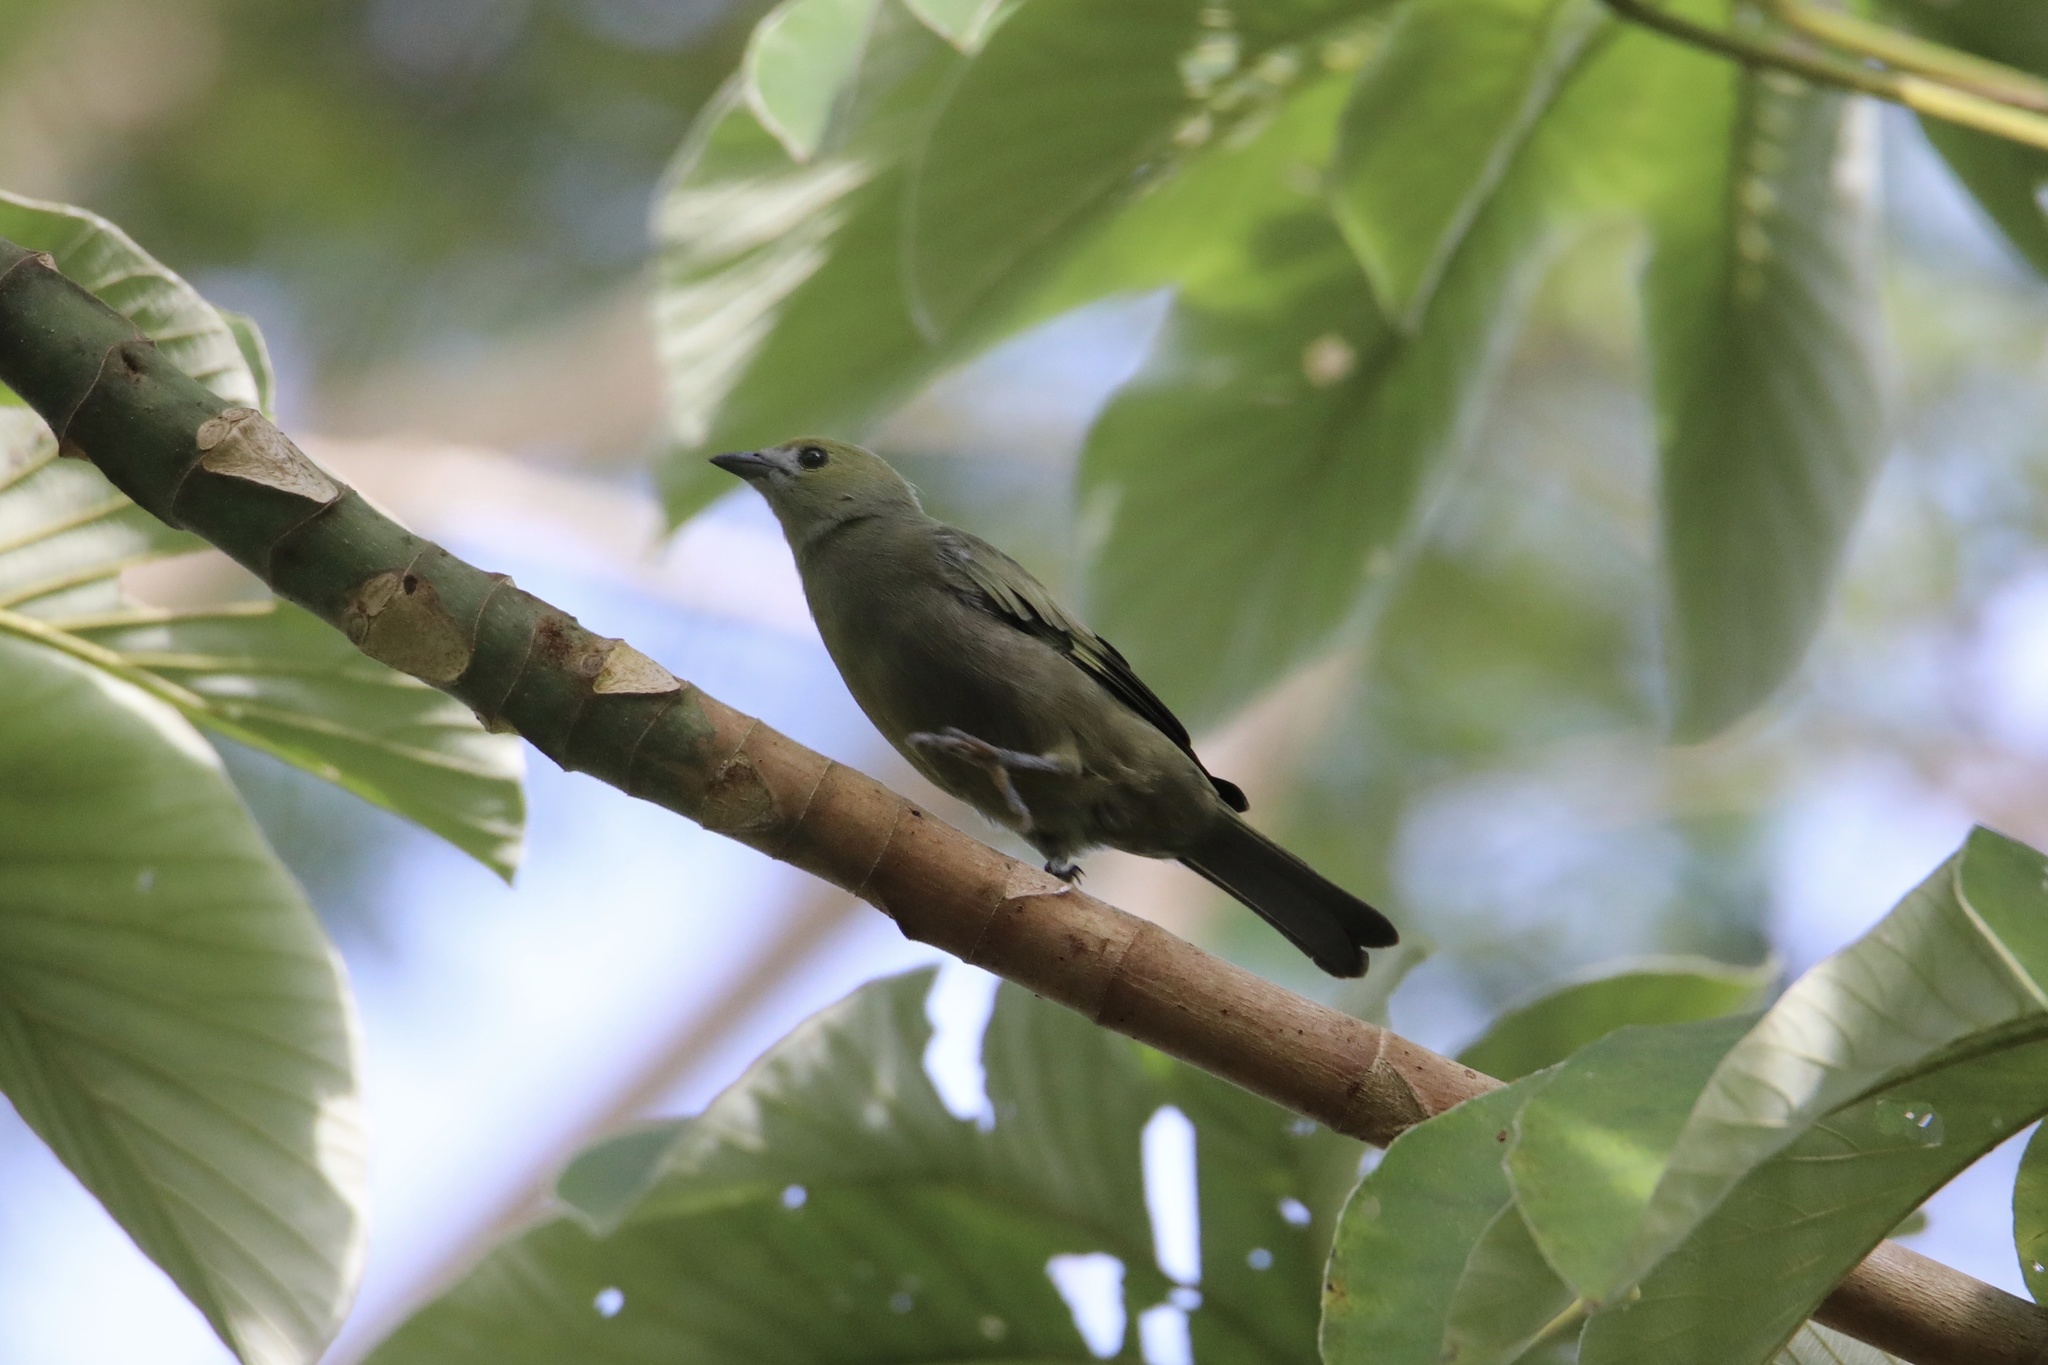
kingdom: Animalia
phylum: Chordata
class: Aves
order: Passeriformes
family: Thraupidae
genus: Thraupis
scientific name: Thraupis palmarum
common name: Palm tanager
